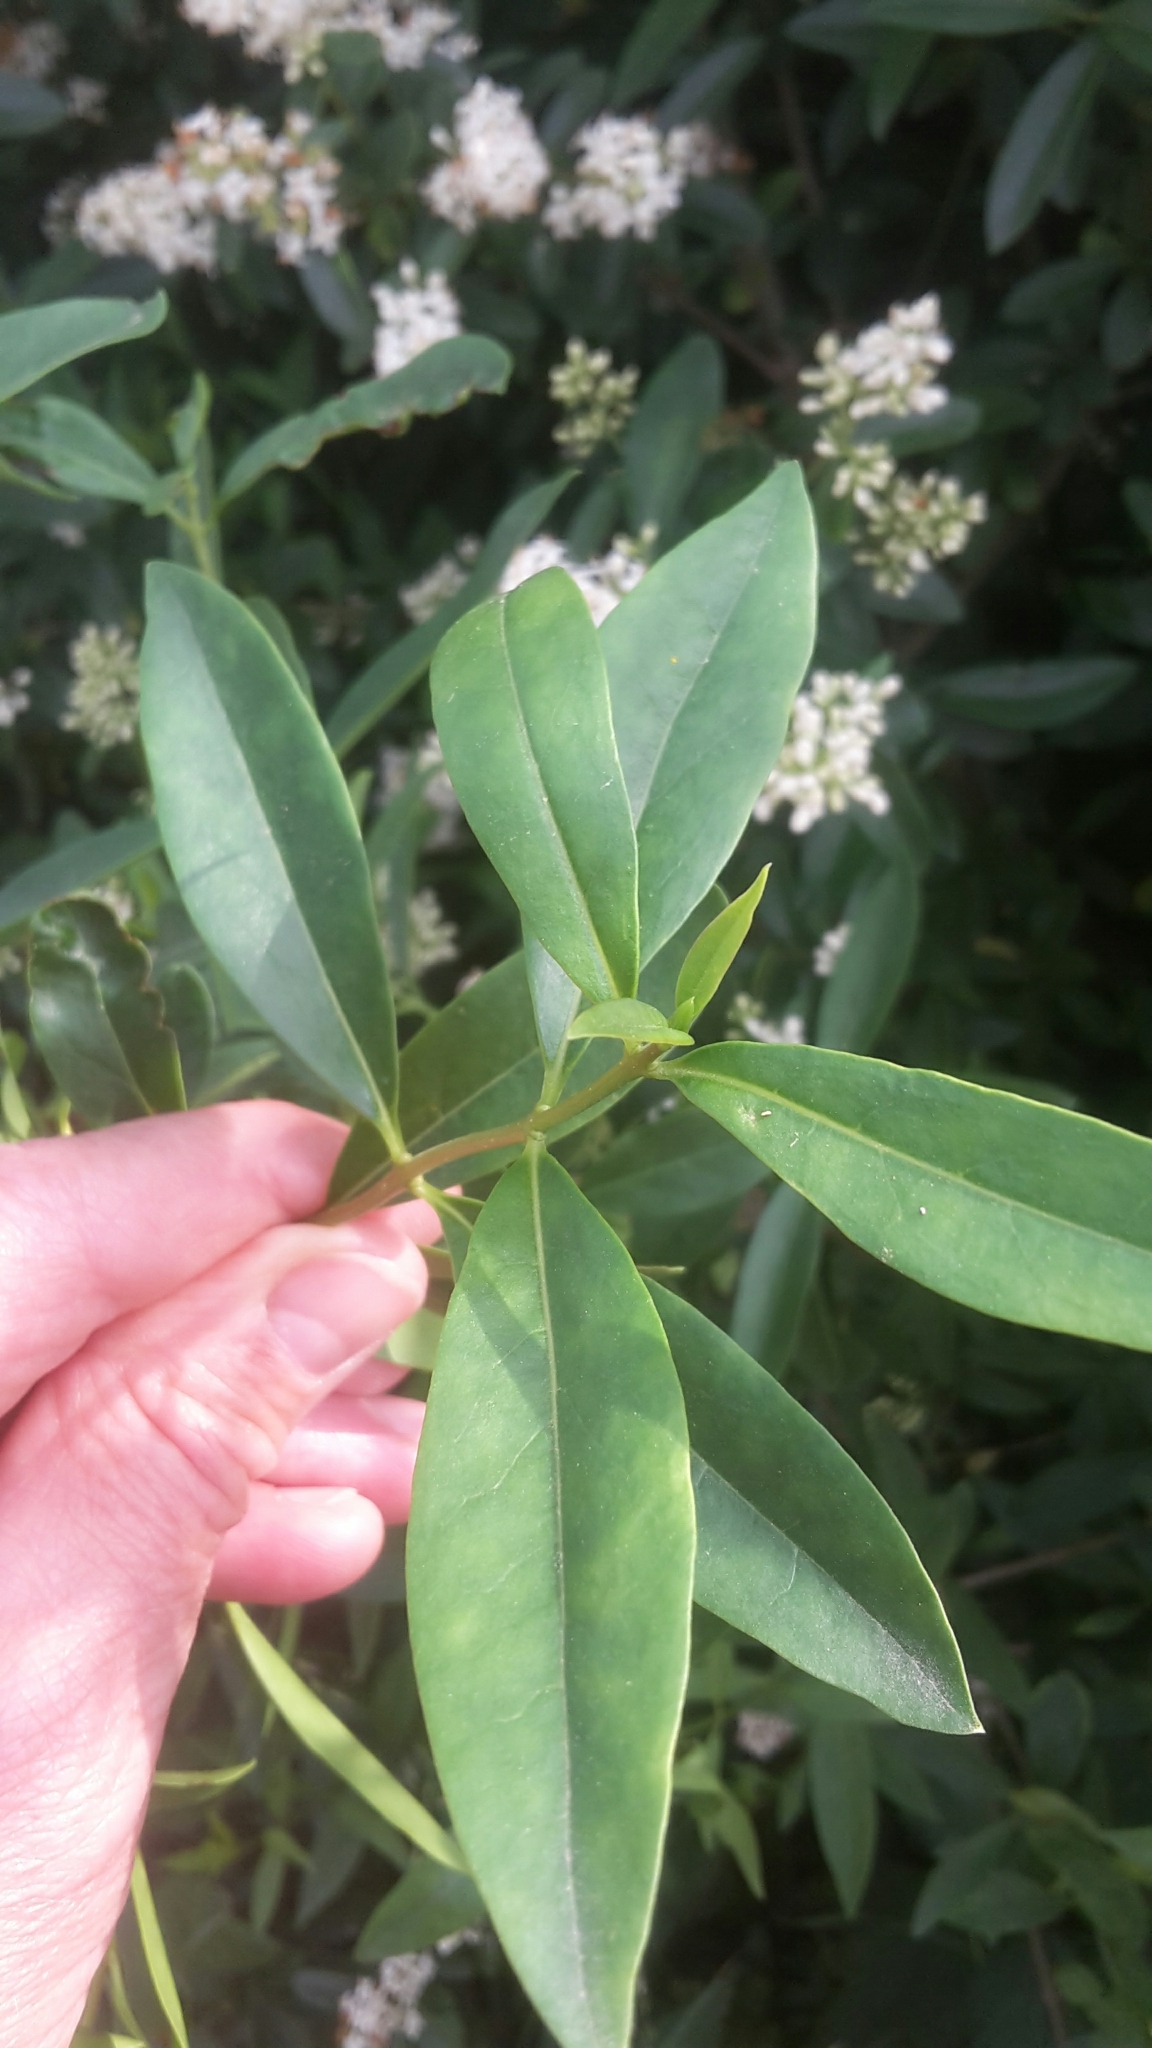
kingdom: Plantae
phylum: Tracheophyta
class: Magnoliopsida
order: Lamiales
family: Oleaceae
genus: Ligustrum
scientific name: Ligustrum vulgare
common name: Wild privet
